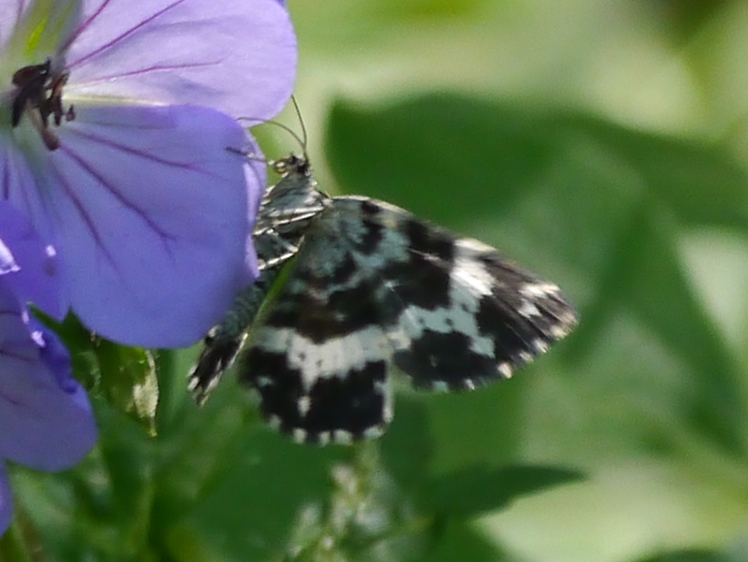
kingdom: Animalia
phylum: Arthropoda
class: Insecta
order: Lepidoptera
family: Geometridae
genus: Rheumaptera
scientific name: Rheumaptera
